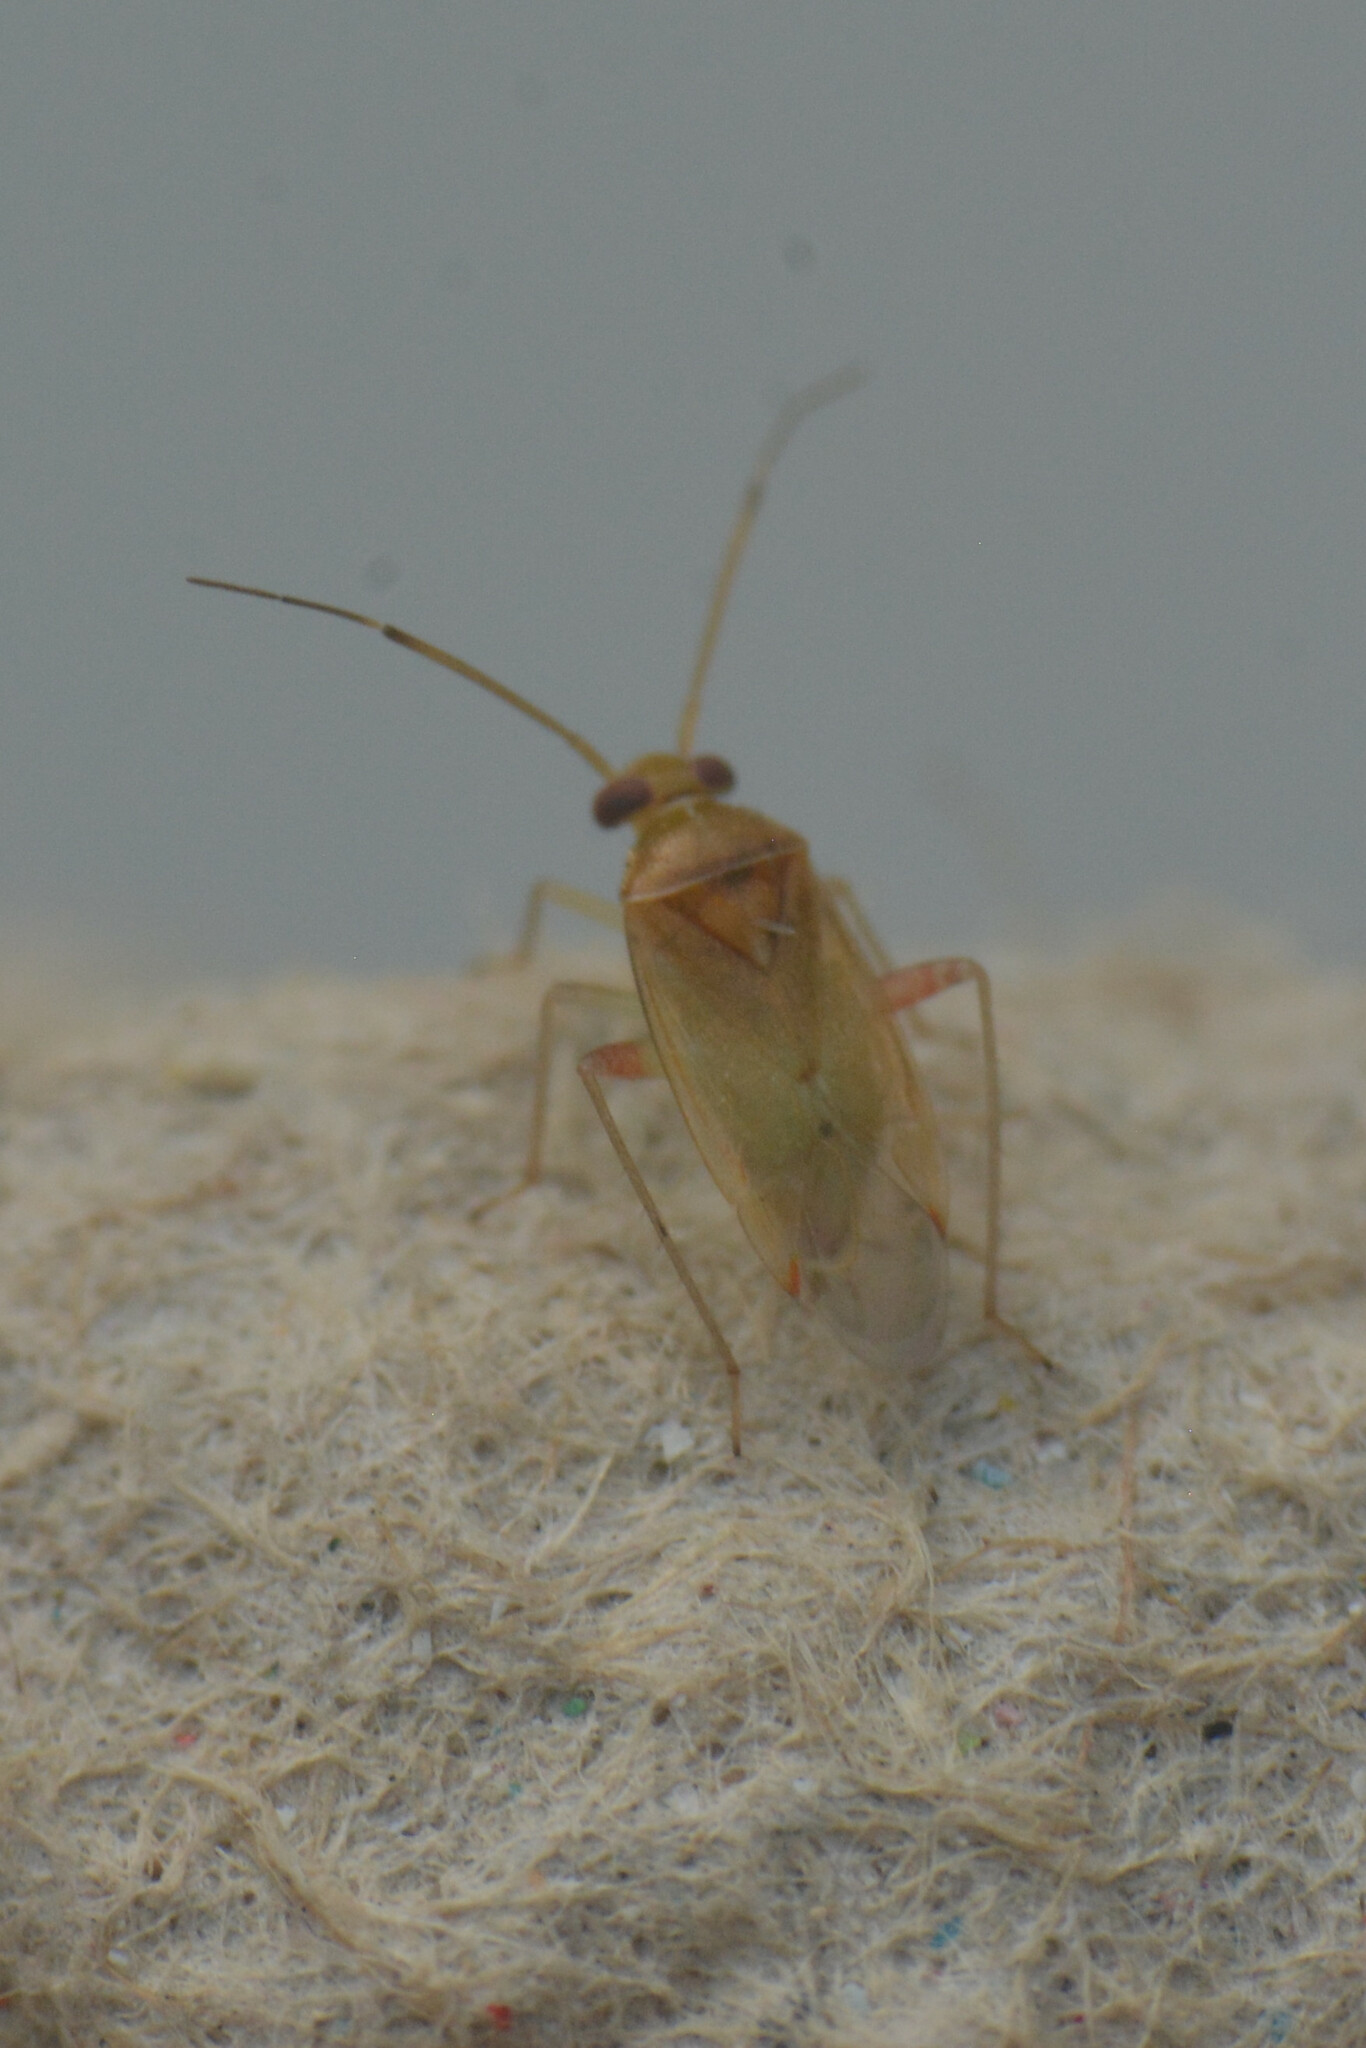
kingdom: Animalia
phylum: Arthropoda
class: Insecta
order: Hemiptera
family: Miridae
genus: Pinalitus
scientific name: Pinalitus cervinus
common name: Plant bug
